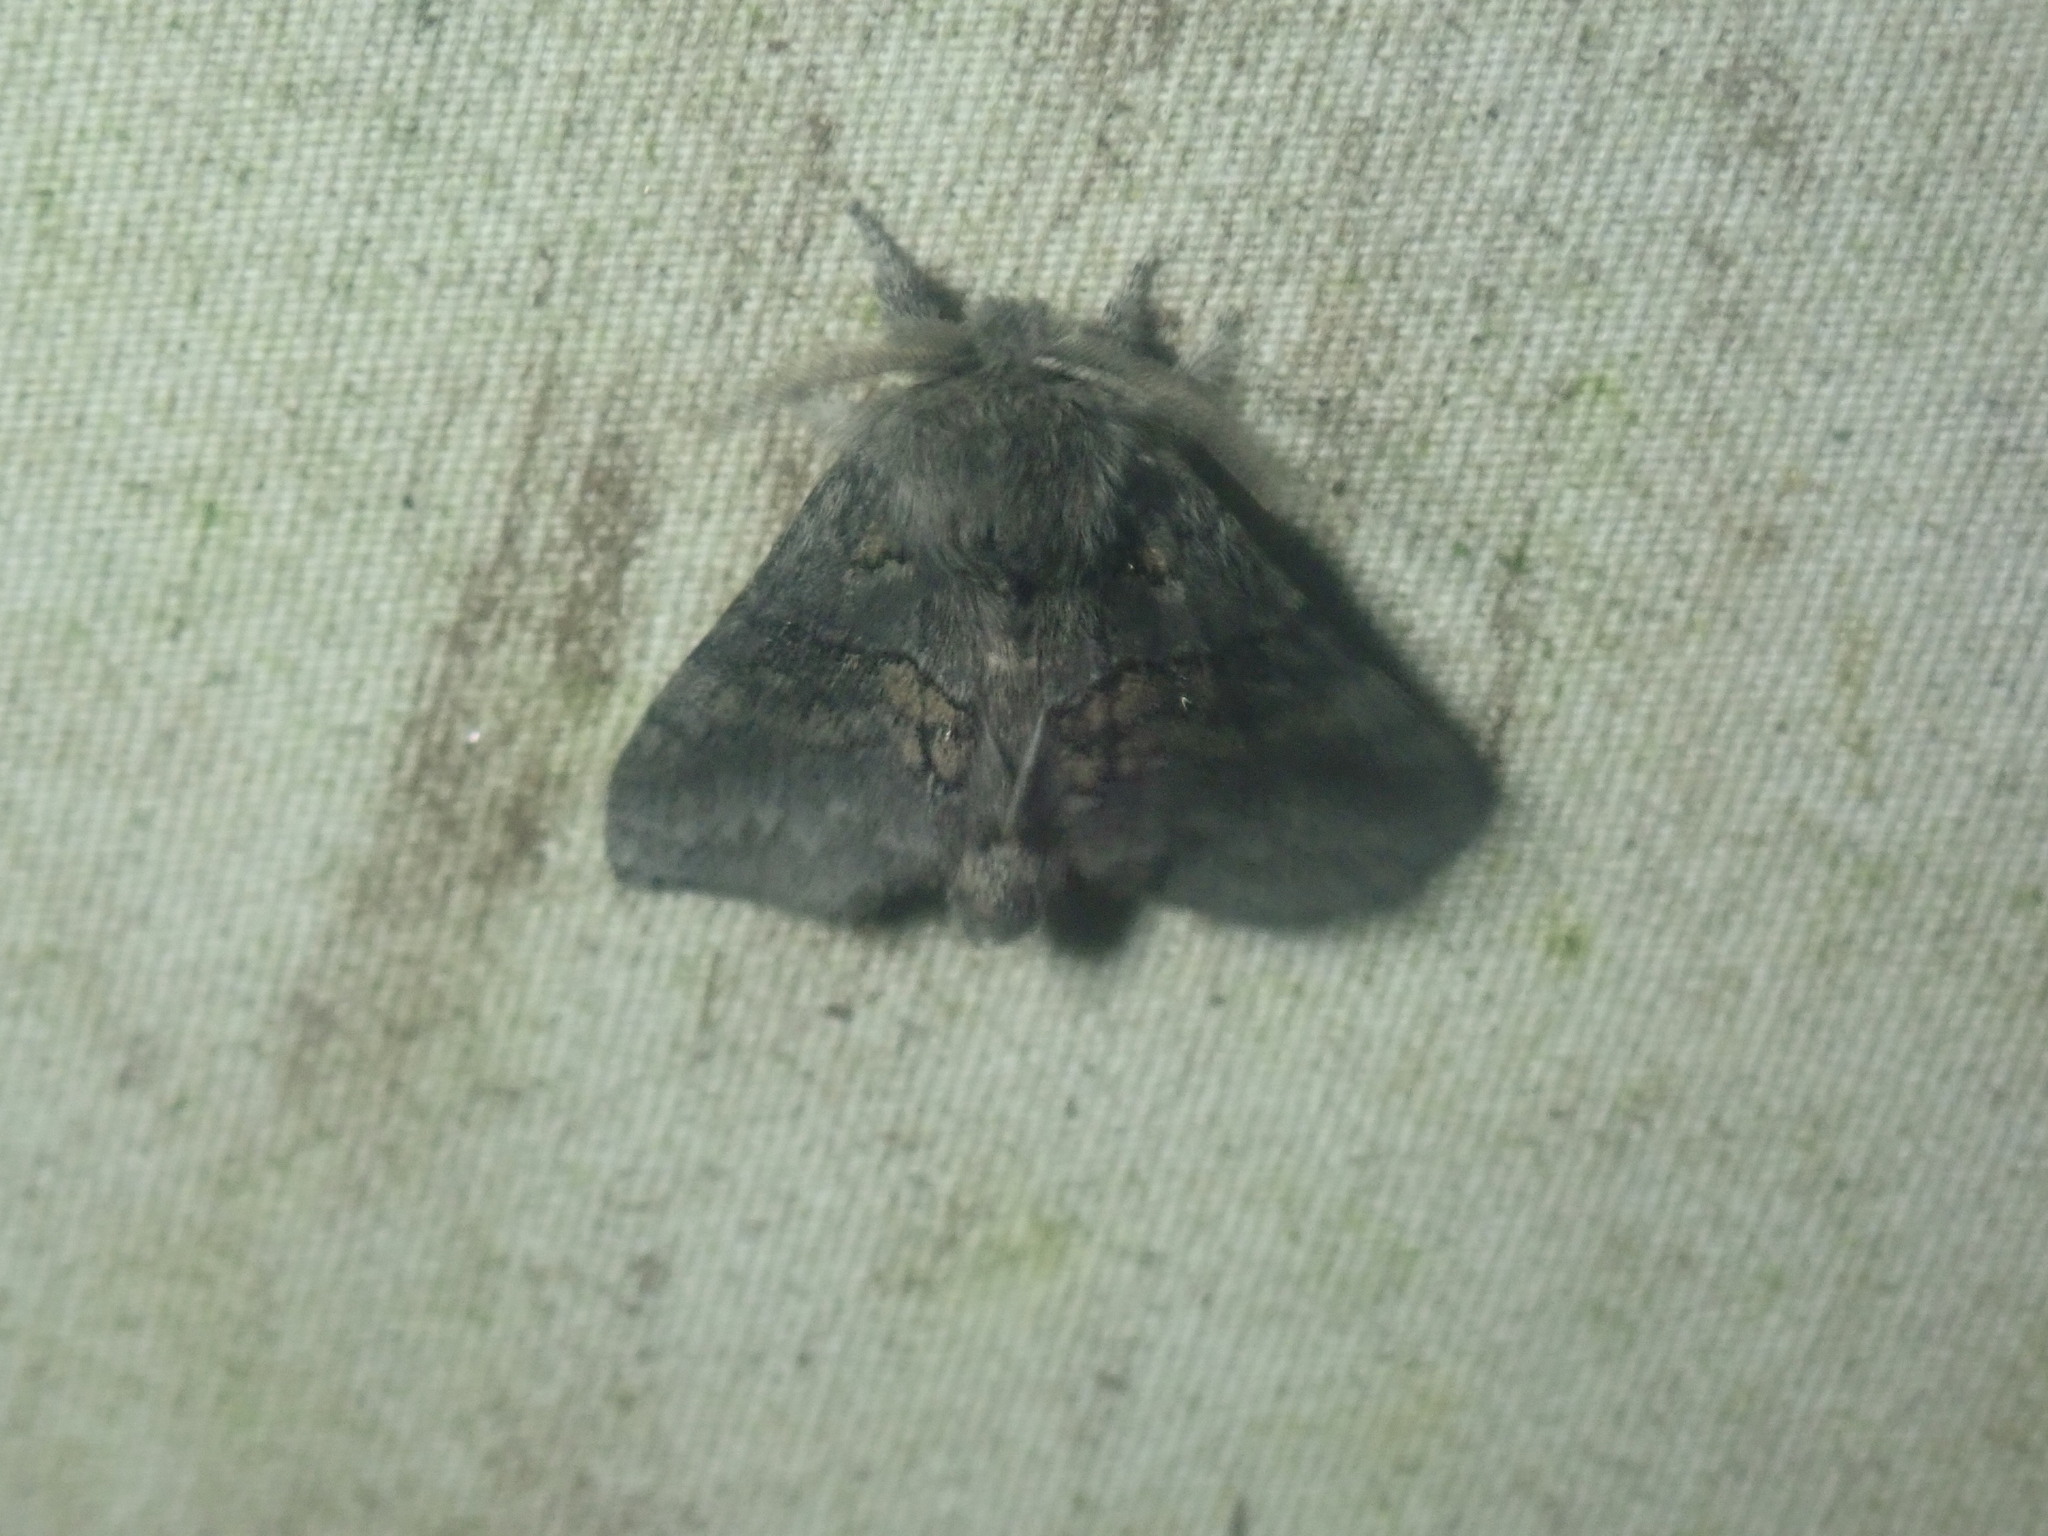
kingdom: Animalia
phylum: Arthropoda
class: Insecta
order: Lepidoptera
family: Notodontidae
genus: Gluphisia
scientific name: Gluphisia septentrionis
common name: Common gluphisia
